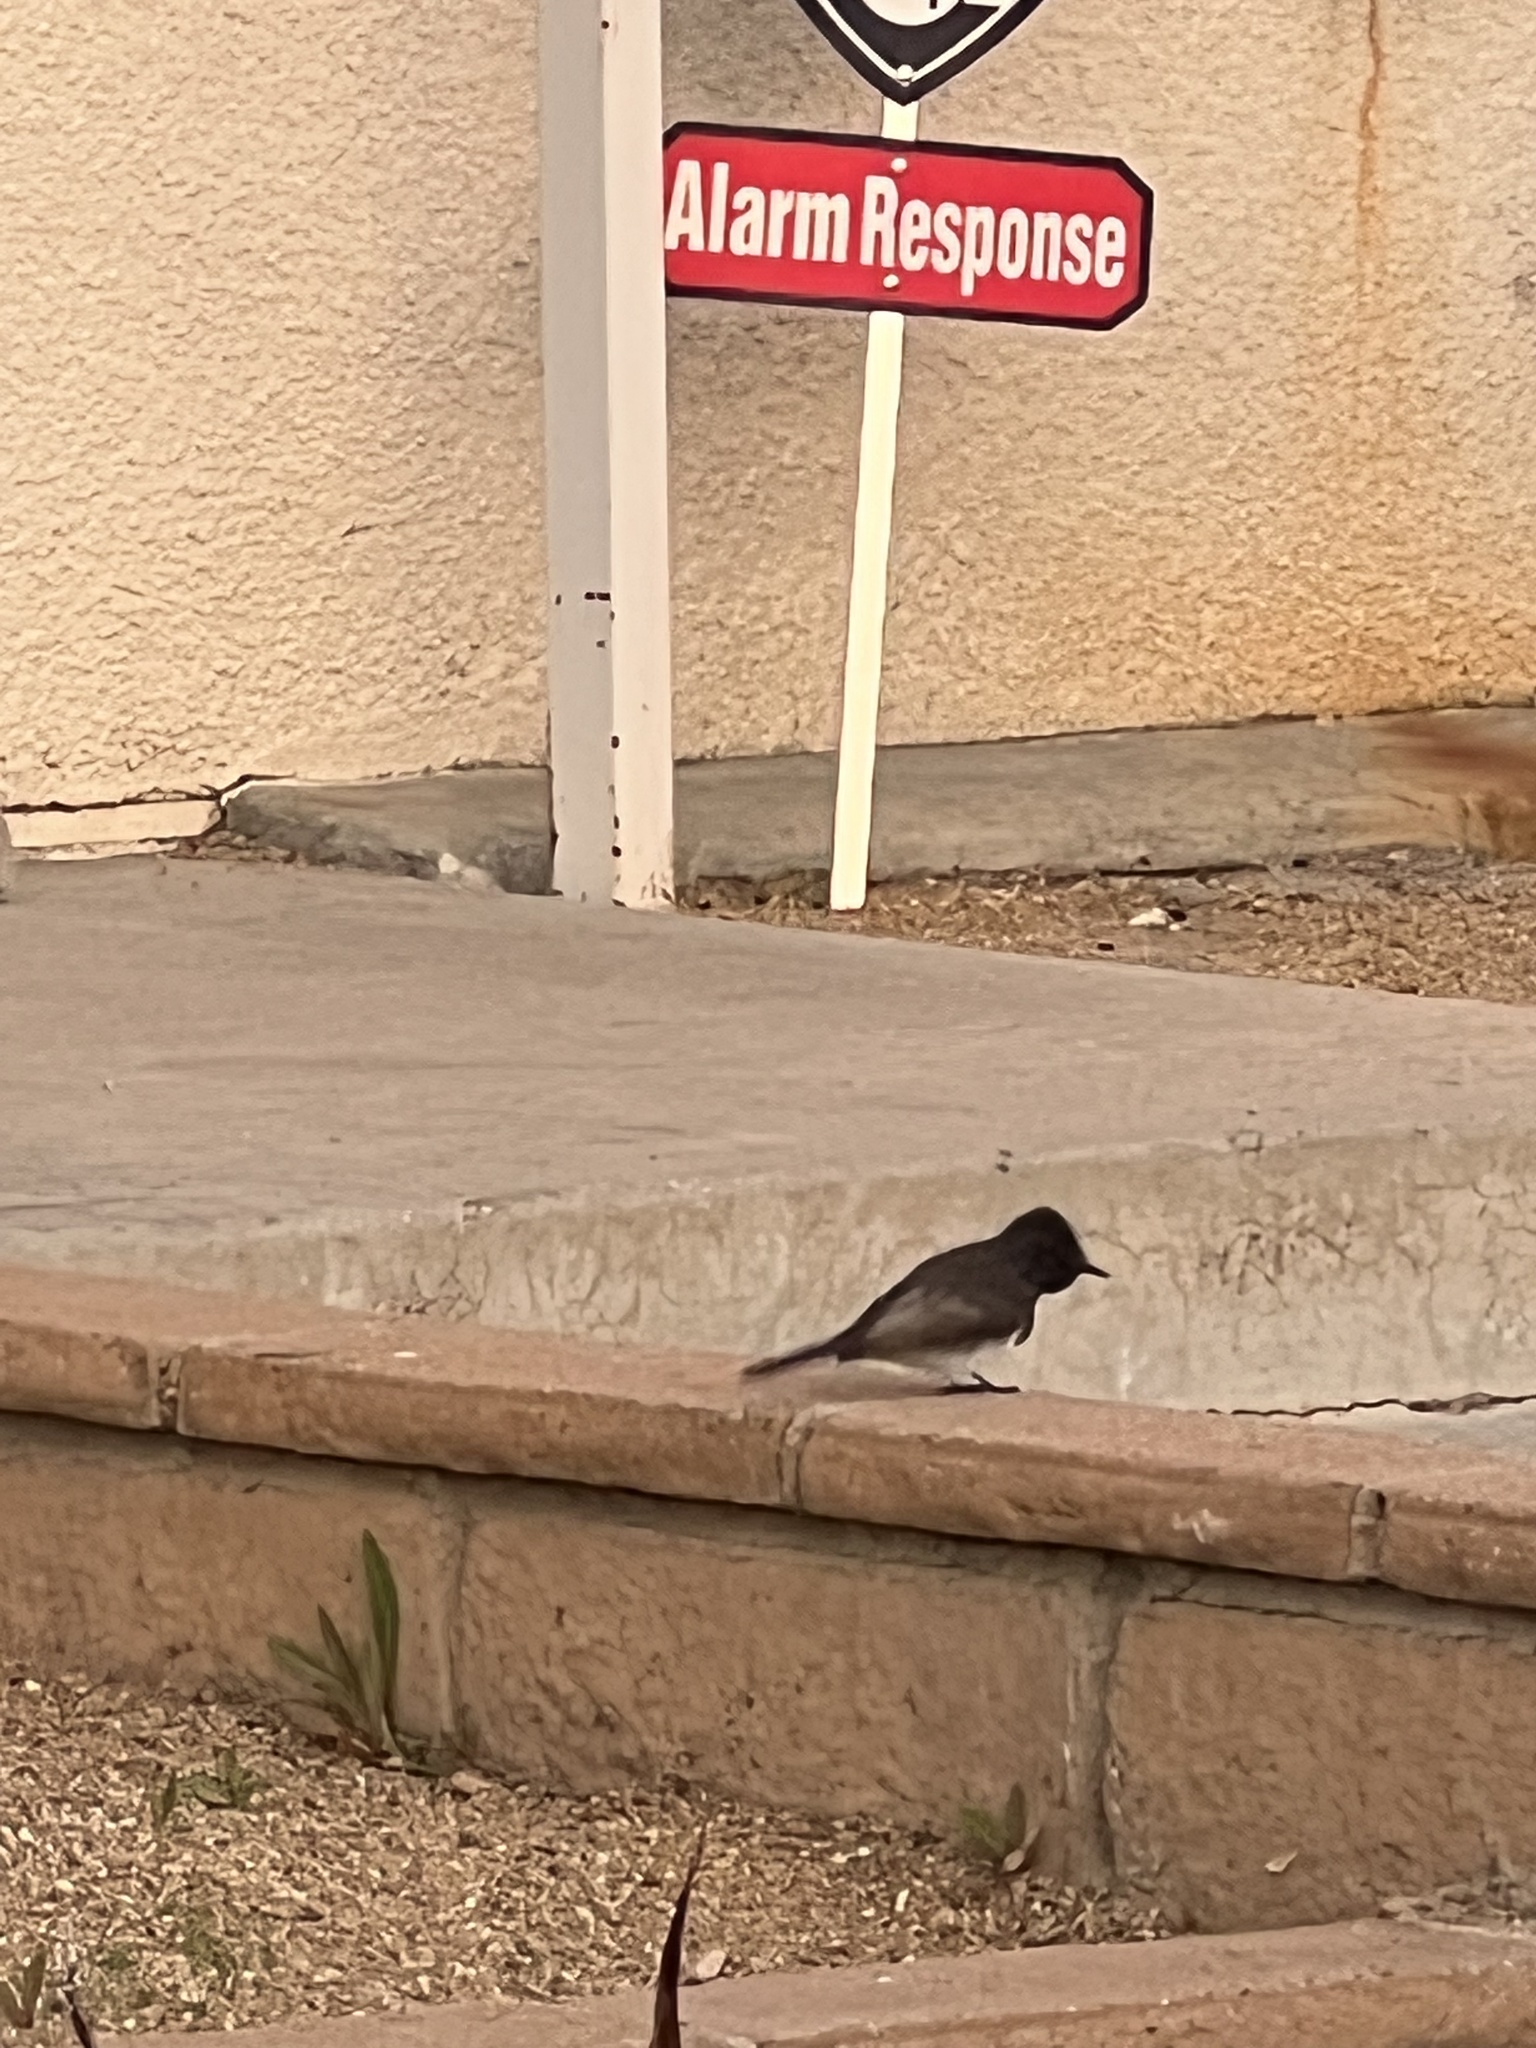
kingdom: Animalia
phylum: Chordata
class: Aves
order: Passeriformes
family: Tyrannidae
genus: Sayornis
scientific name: Sayornis nigricans
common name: Black phoebe
